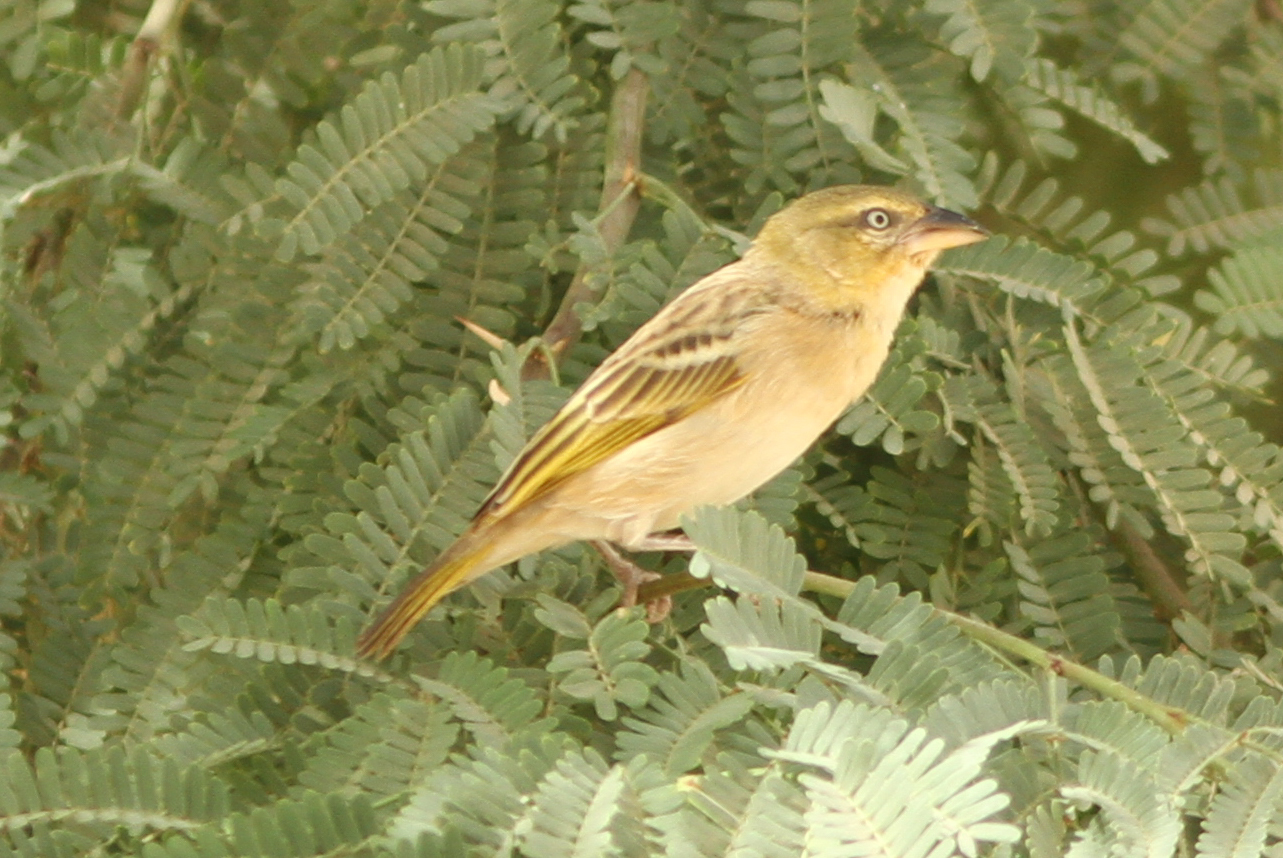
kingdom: Animalia
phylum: Chordata
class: Aves
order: Passeriformes
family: Ploceidae
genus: Ploceus
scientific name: Ploceus melanocephalus
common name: Black-headed weaver
